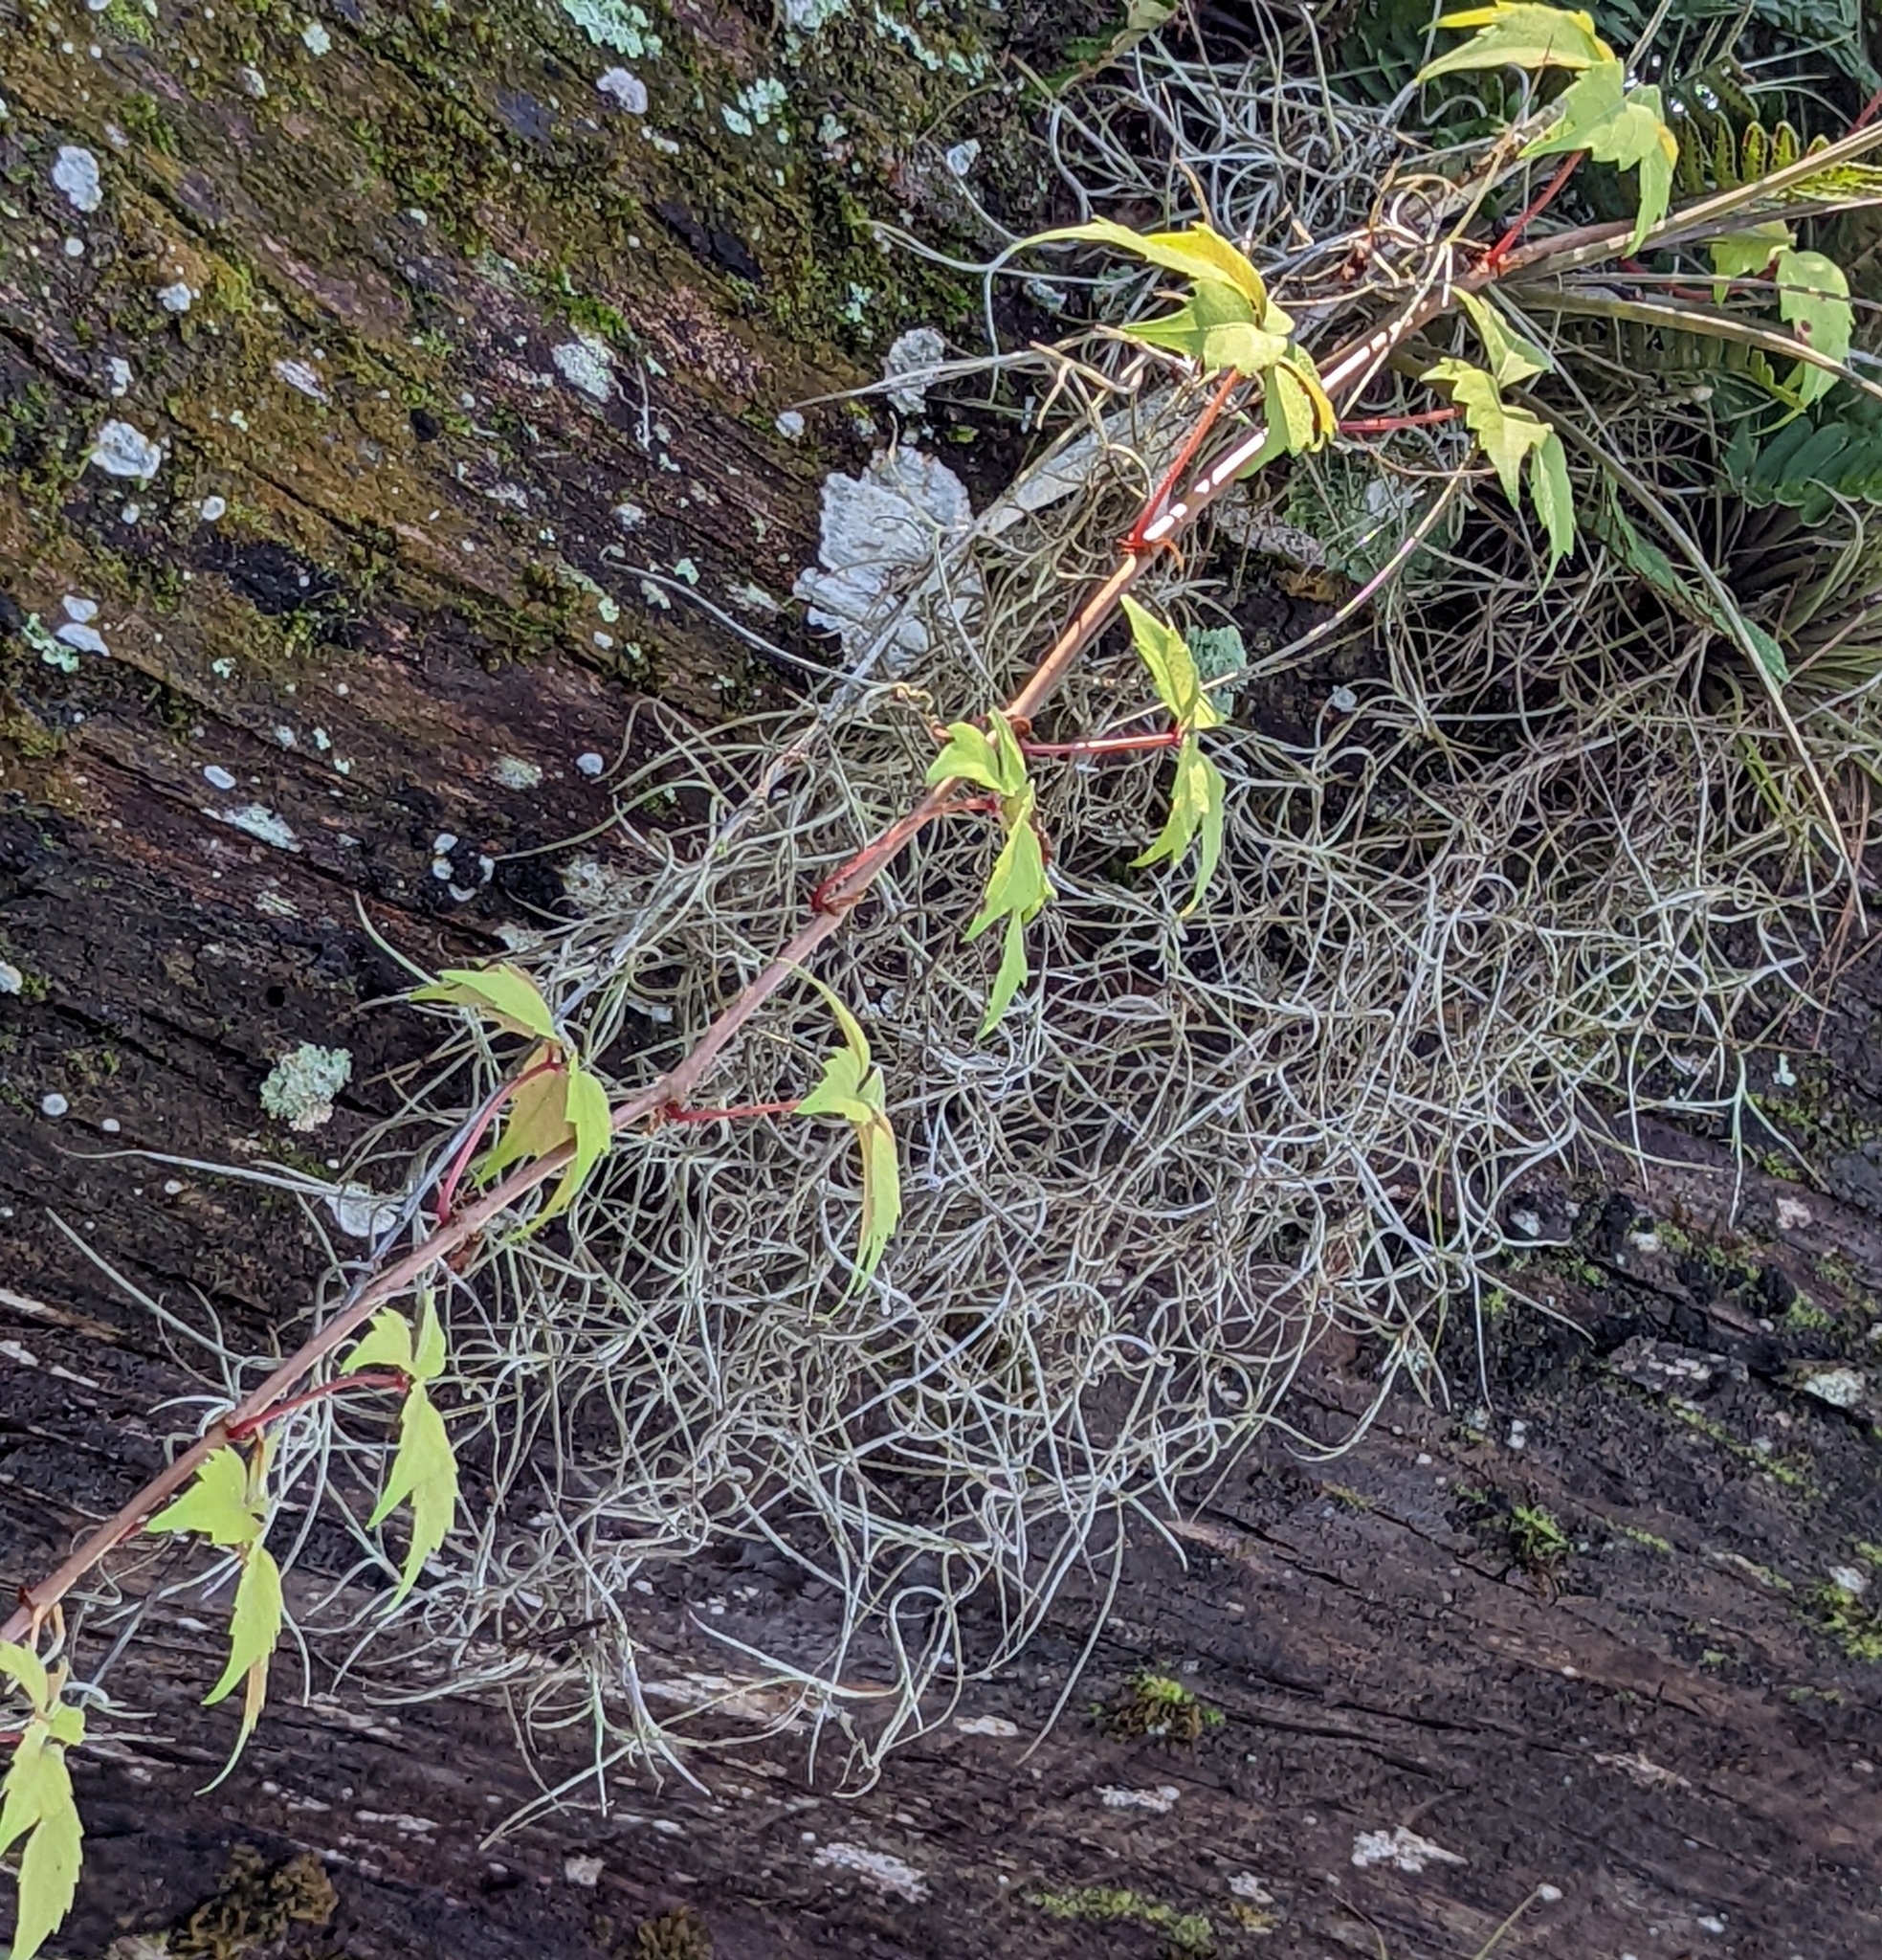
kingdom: Plantae
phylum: Tracheophyta
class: Liliopsida
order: Poales
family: Bromeliaceae
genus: Tillandsia
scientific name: Tillandsia usneoides
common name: Spanish moss
